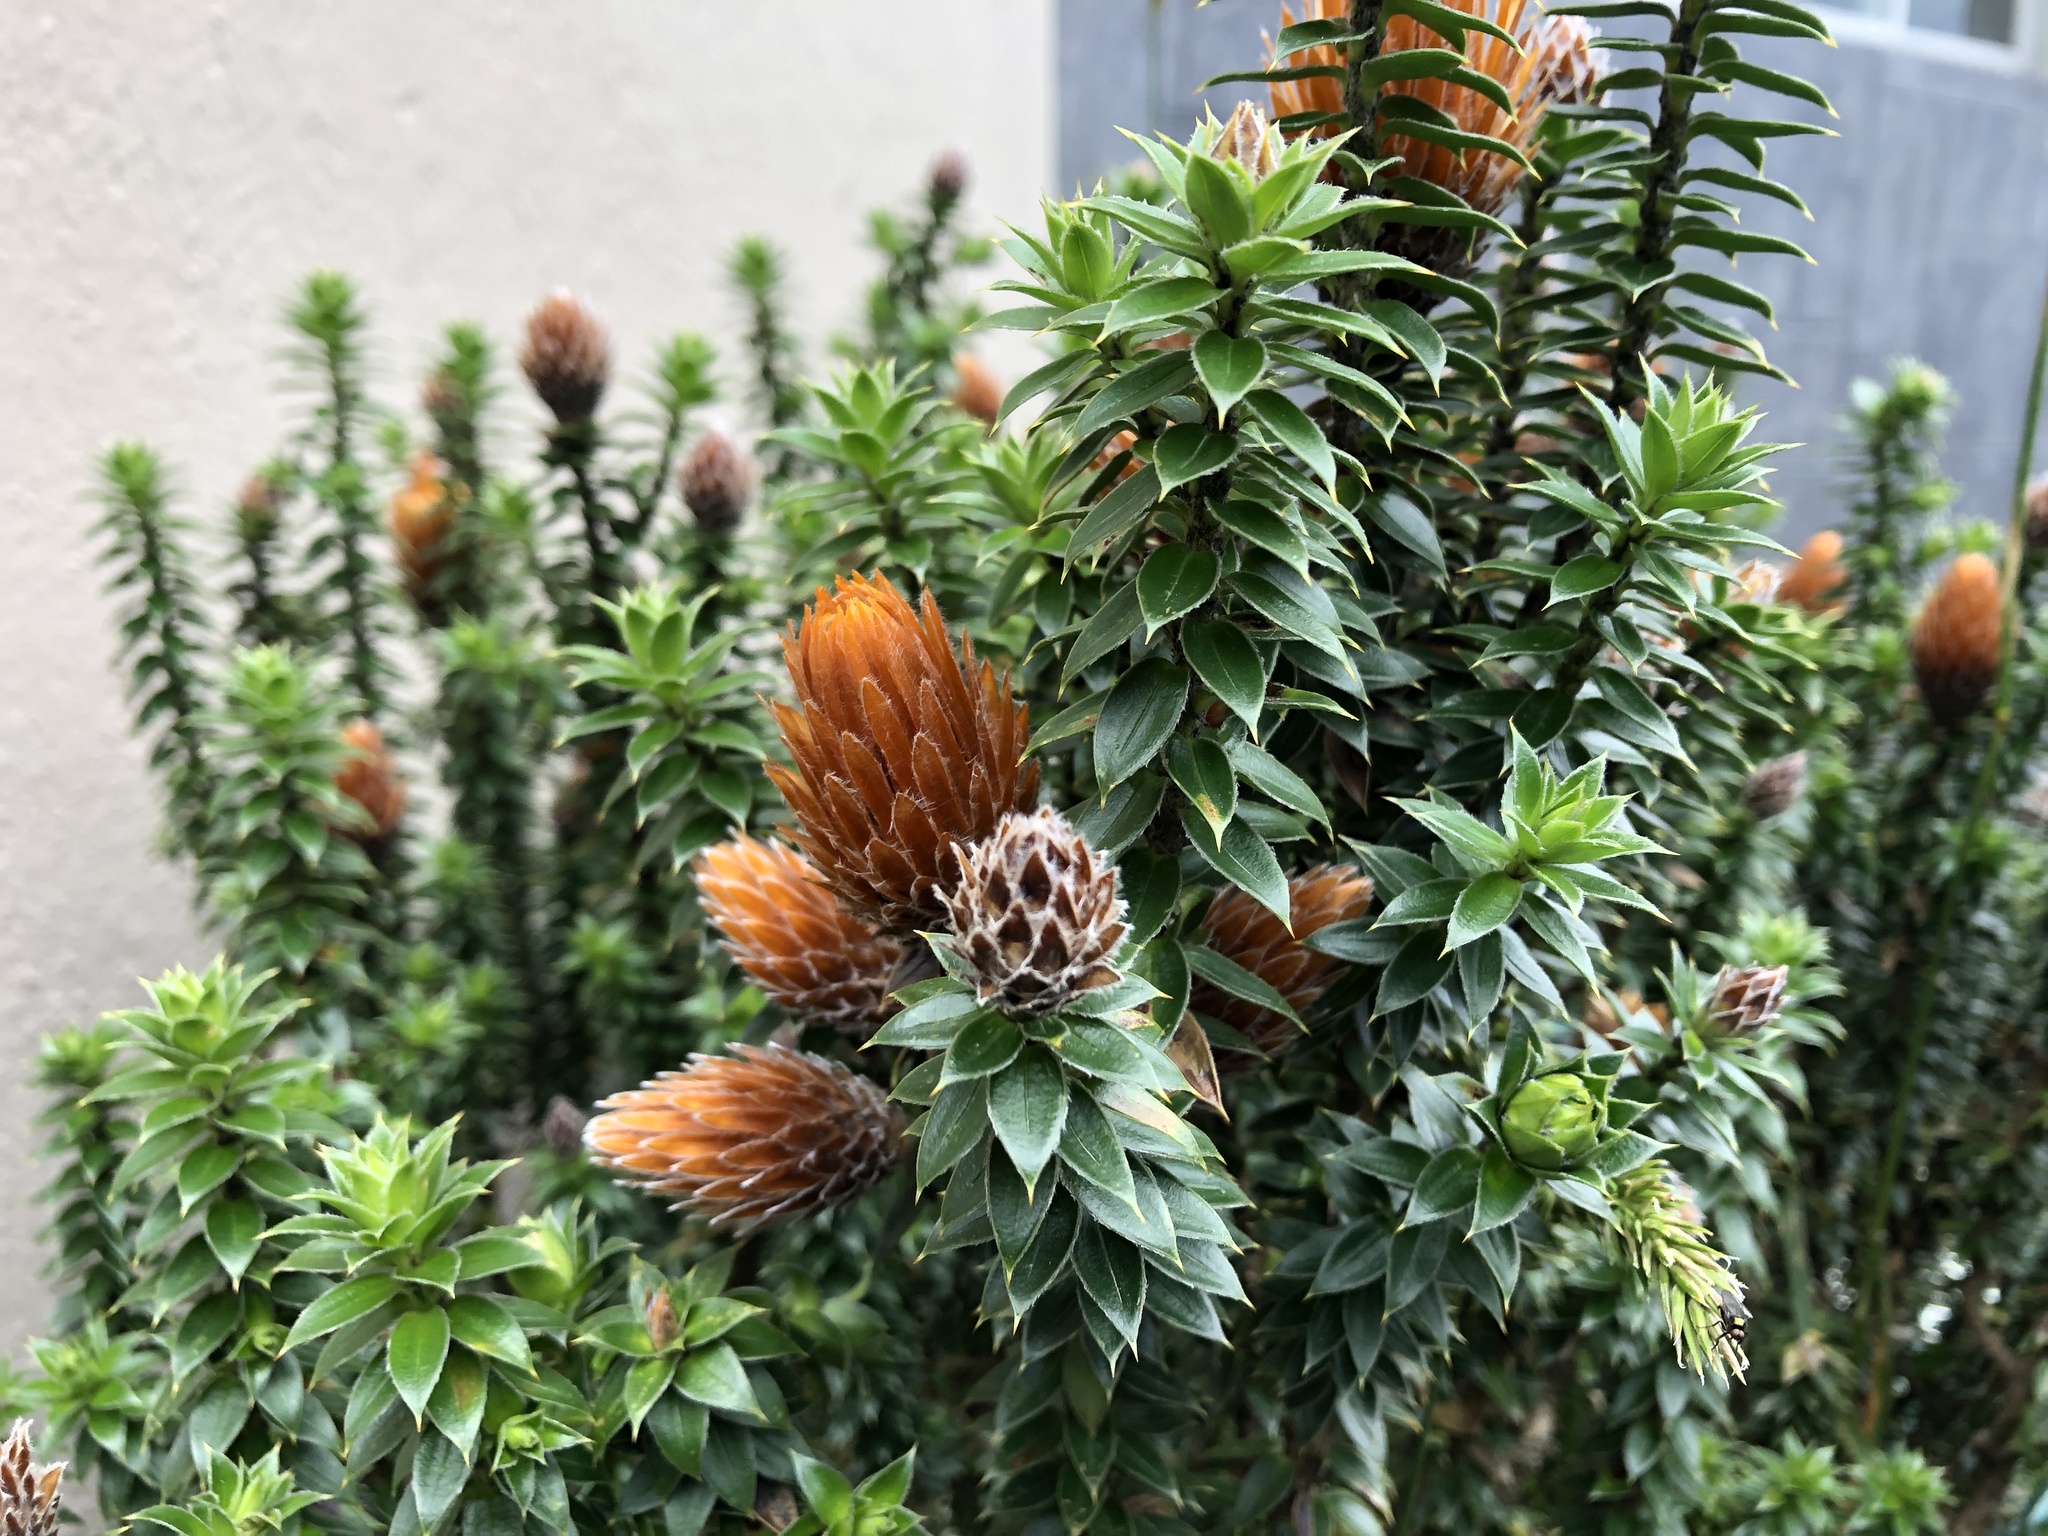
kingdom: Plantae
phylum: Tracheophyta
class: Magnoliopsida
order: Asterales
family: Asteraceae
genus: Chuquiraga
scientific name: Chuquiraga jussieui
